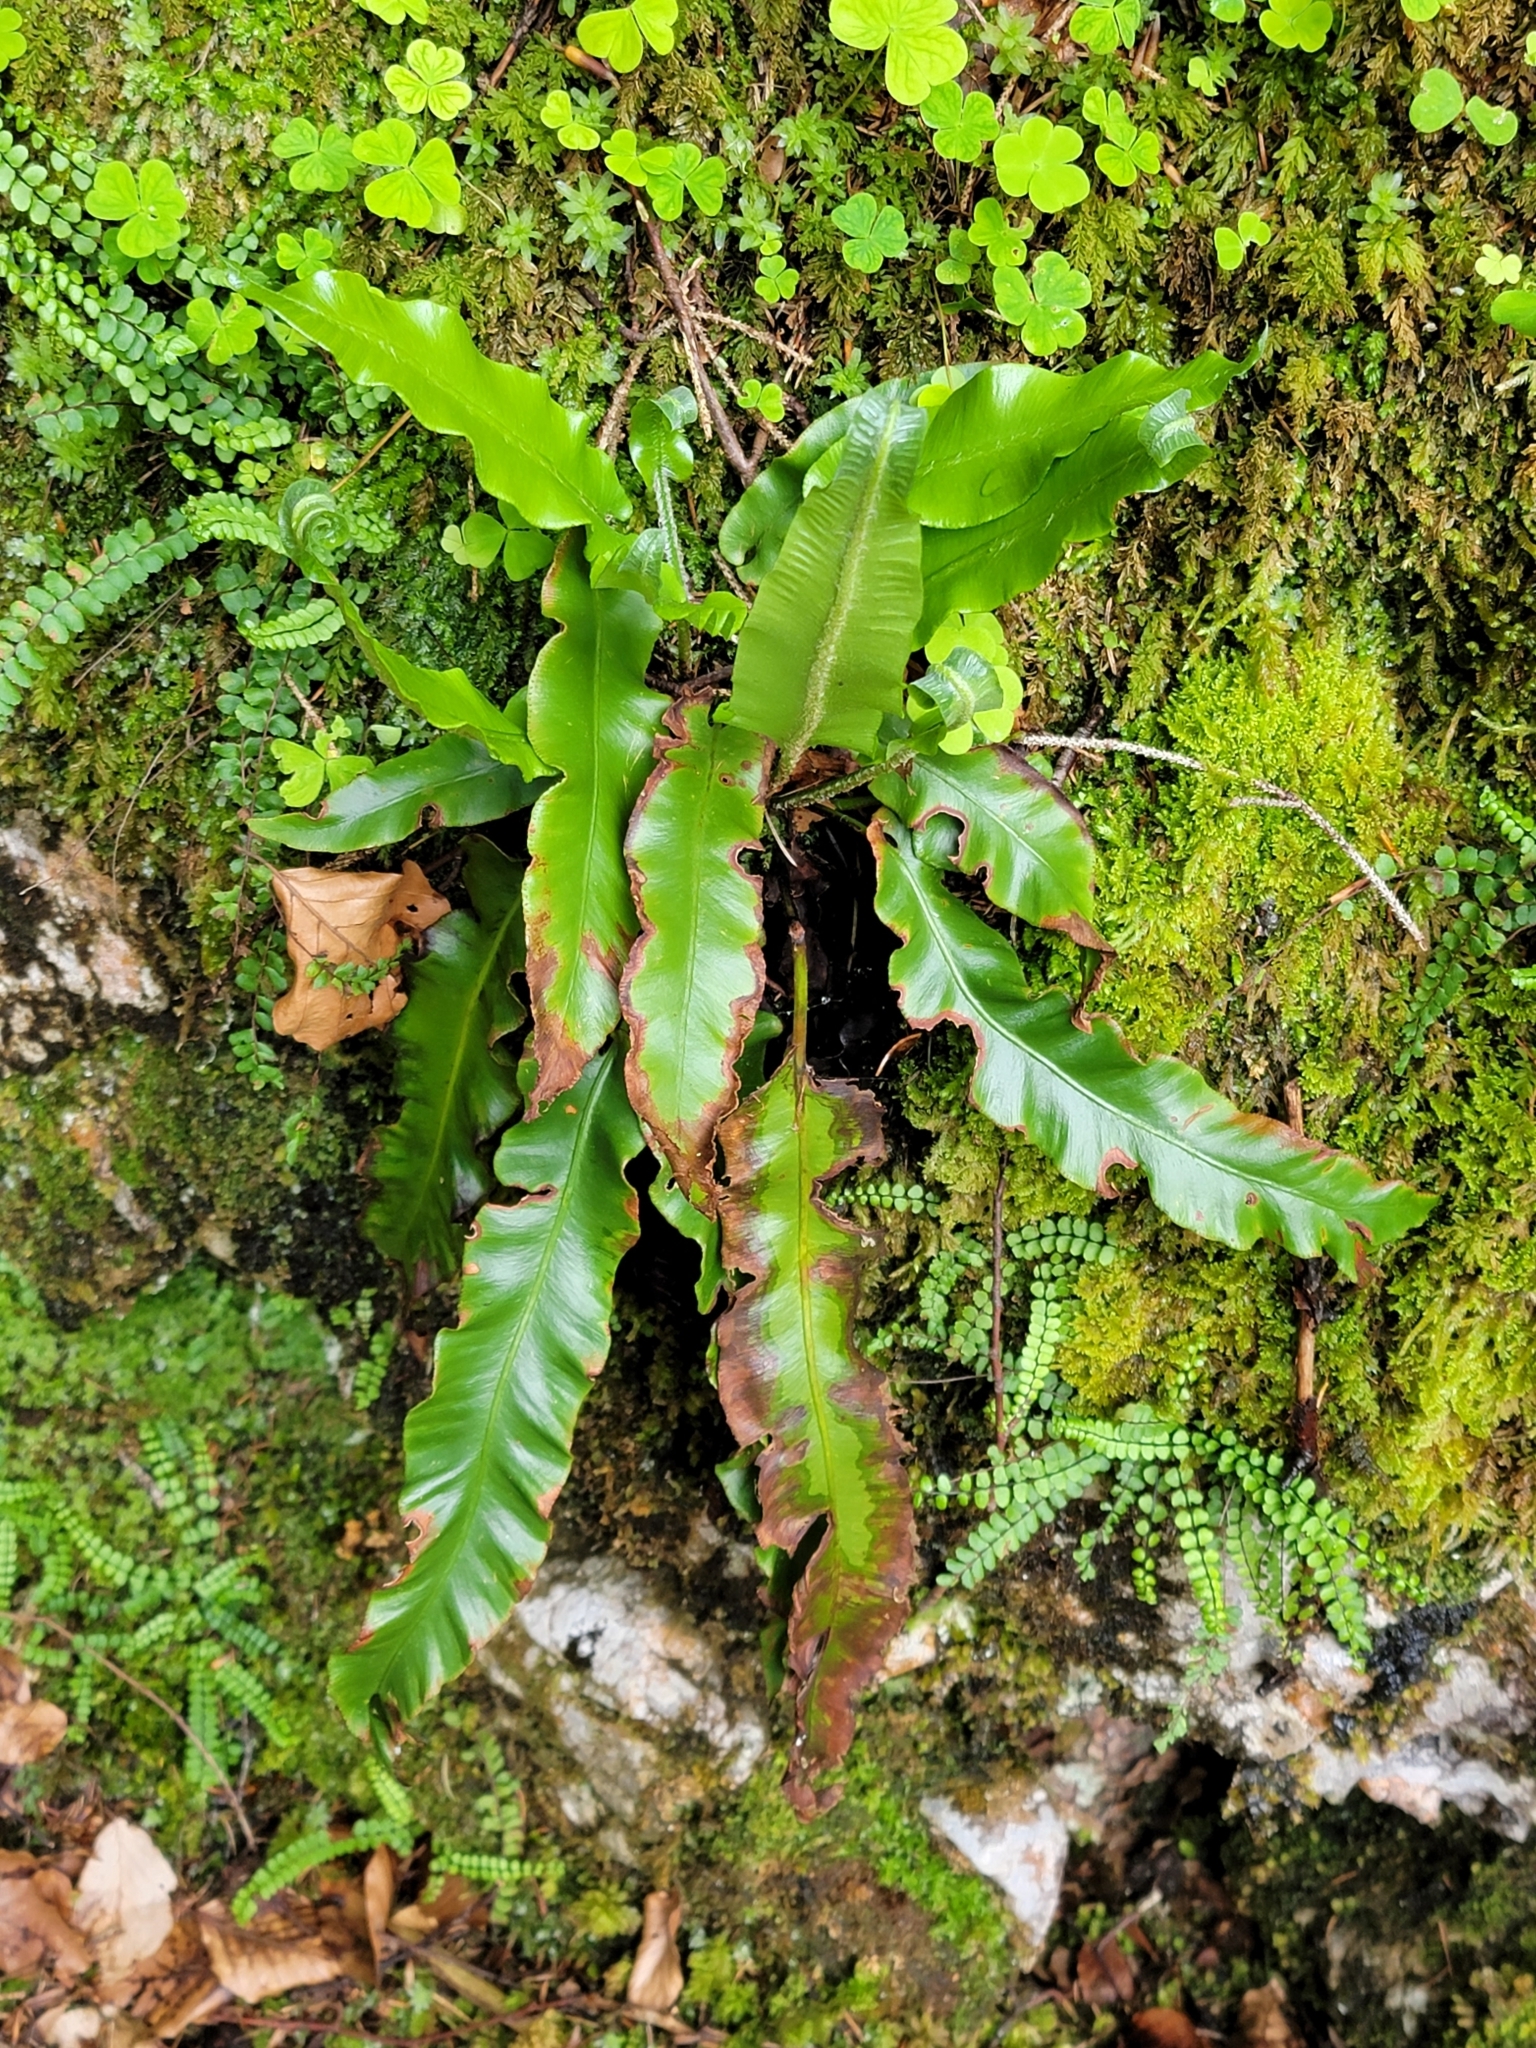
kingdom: Plantae
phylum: Tracheophyta
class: Polypodiopsida
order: Polypodiales
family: Aspleniaceae
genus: Asplenium
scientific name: Asplenium scolopendrium
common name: Hart's-tongue fern
